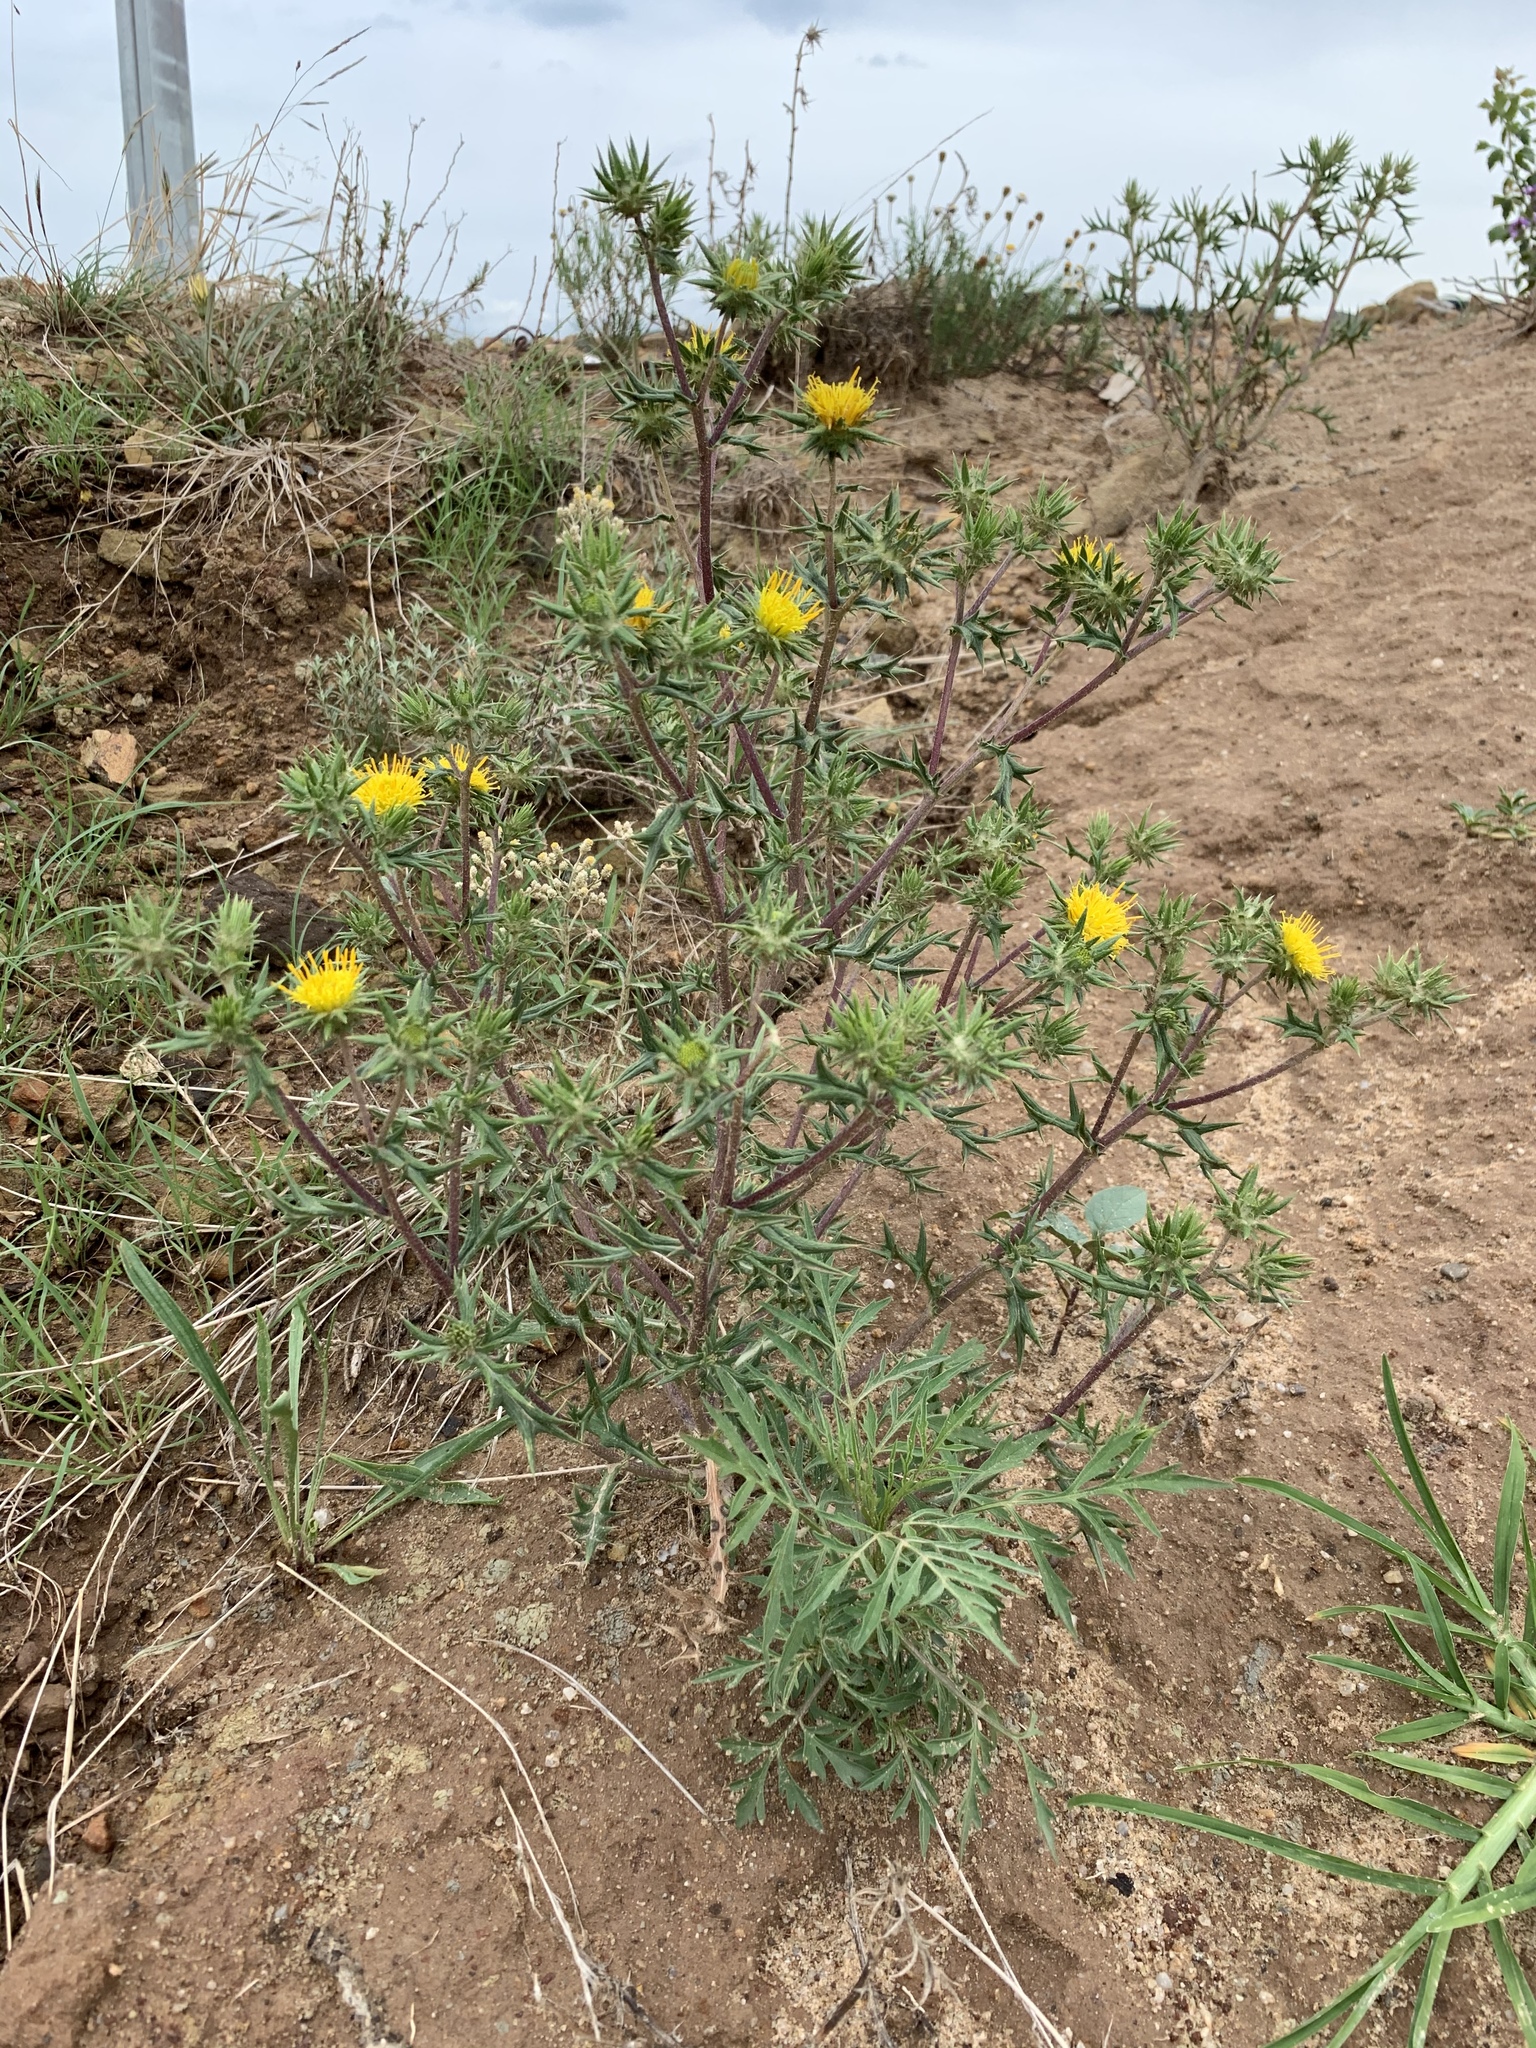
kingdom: Plantae
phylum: Tracheophyta
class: Magnoliopsida
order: Asterales
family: Asteraceae
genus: Berkheya
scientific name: Berkheya pinnatifida
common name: Lobed african thistle
